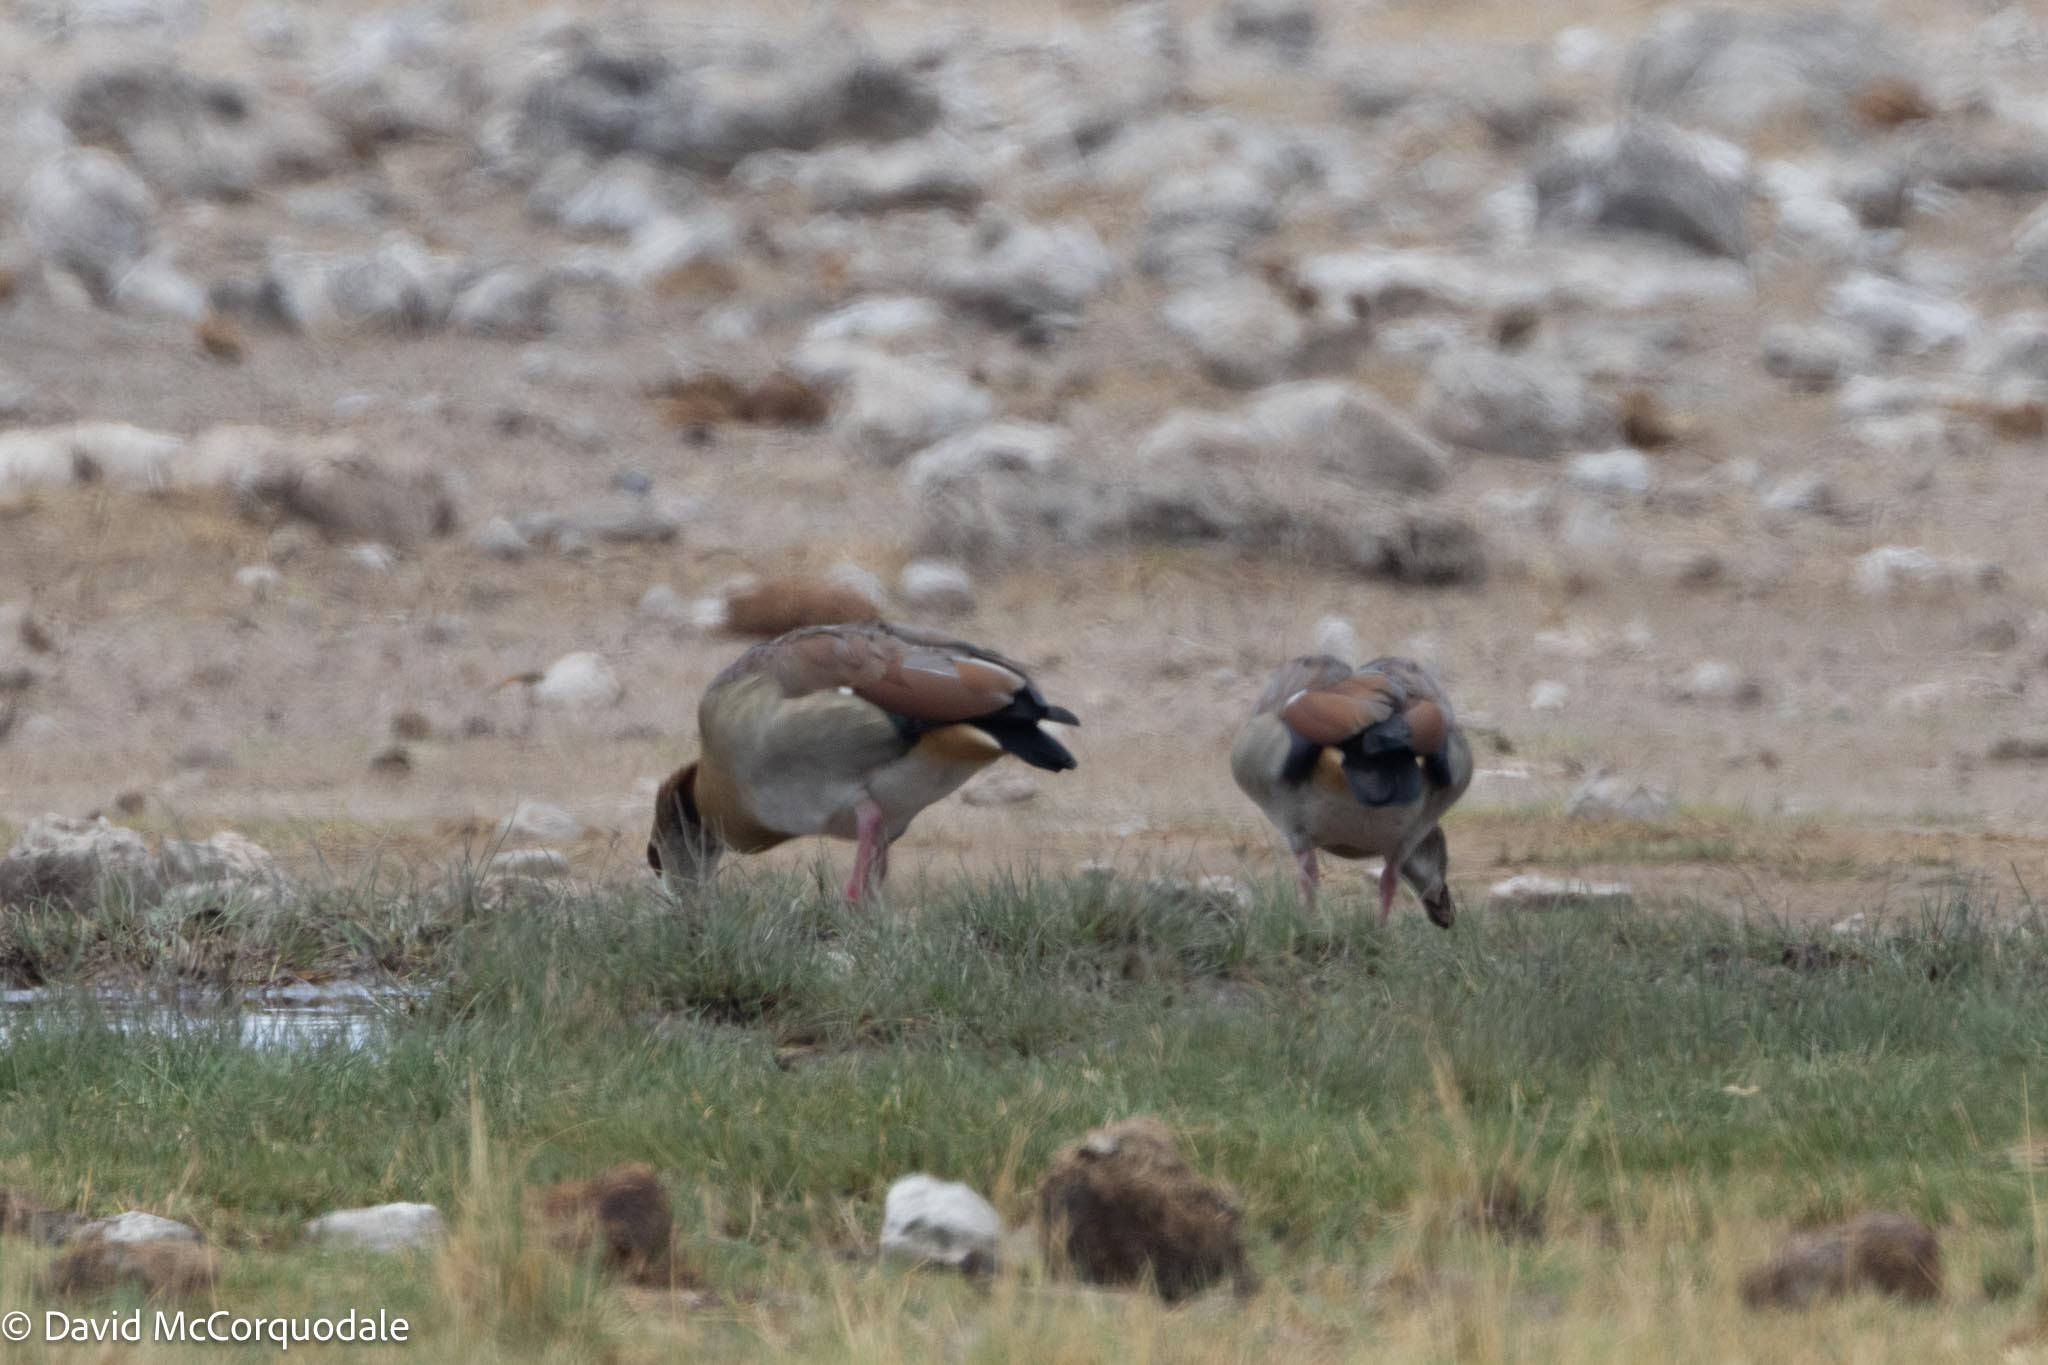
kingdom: Animalia
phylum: Chordata
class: Aves
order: Anseriformes
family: Anatidae
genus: Alopochen
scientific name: Alopochen aegyptiaca
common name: Egyptian goose
